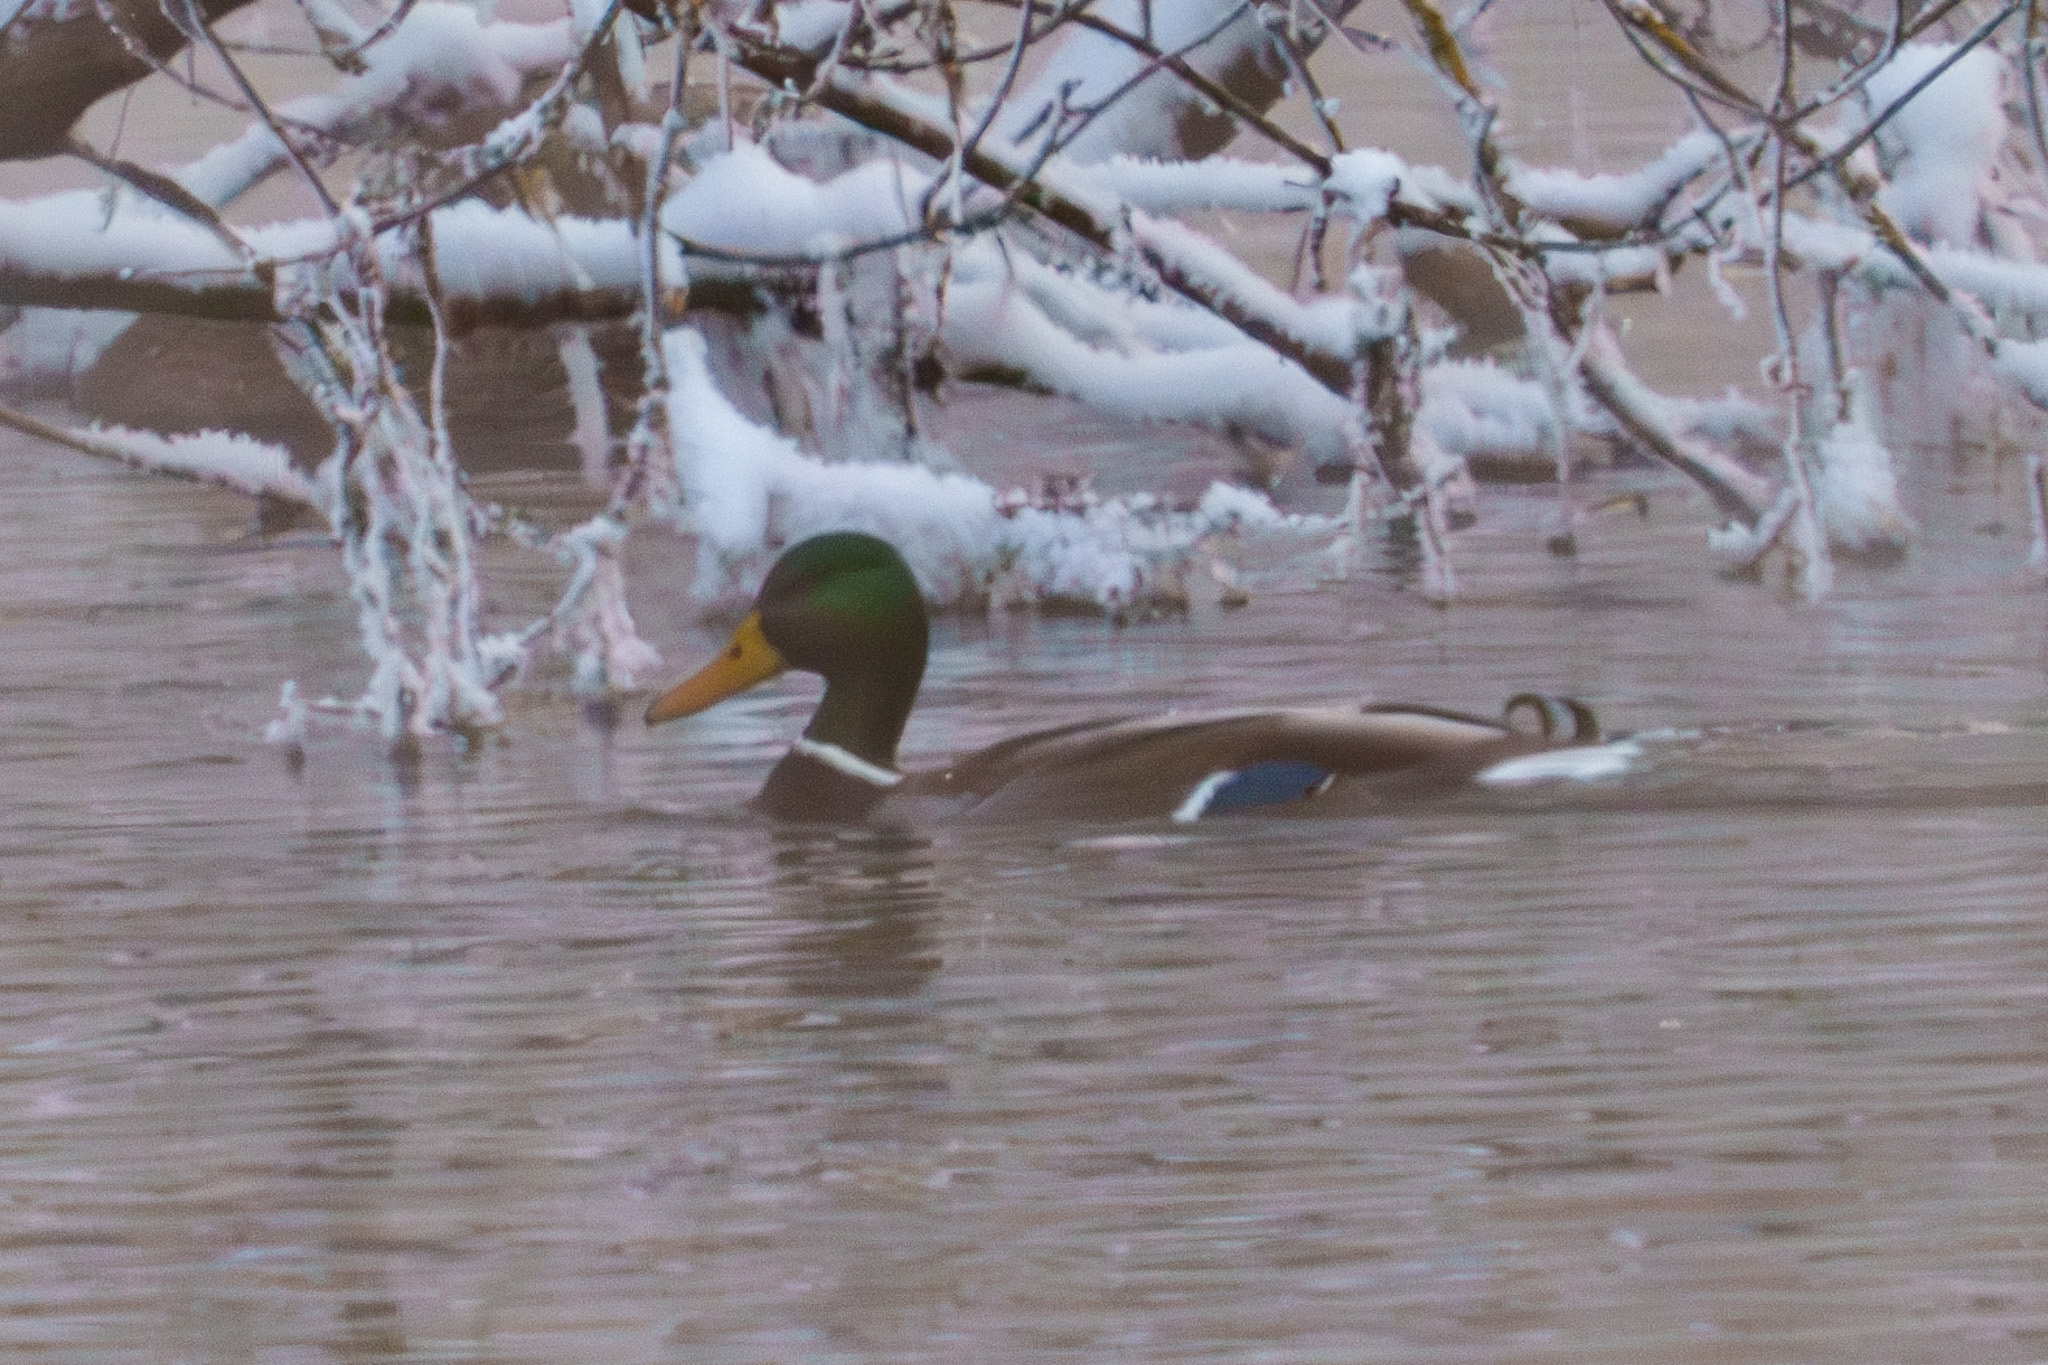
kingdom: Animalia
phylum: Chordata
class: Aves
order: Anseriformes
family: Anatidae
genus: Anas
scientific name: Anas platyrhynchos
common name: Mallard
